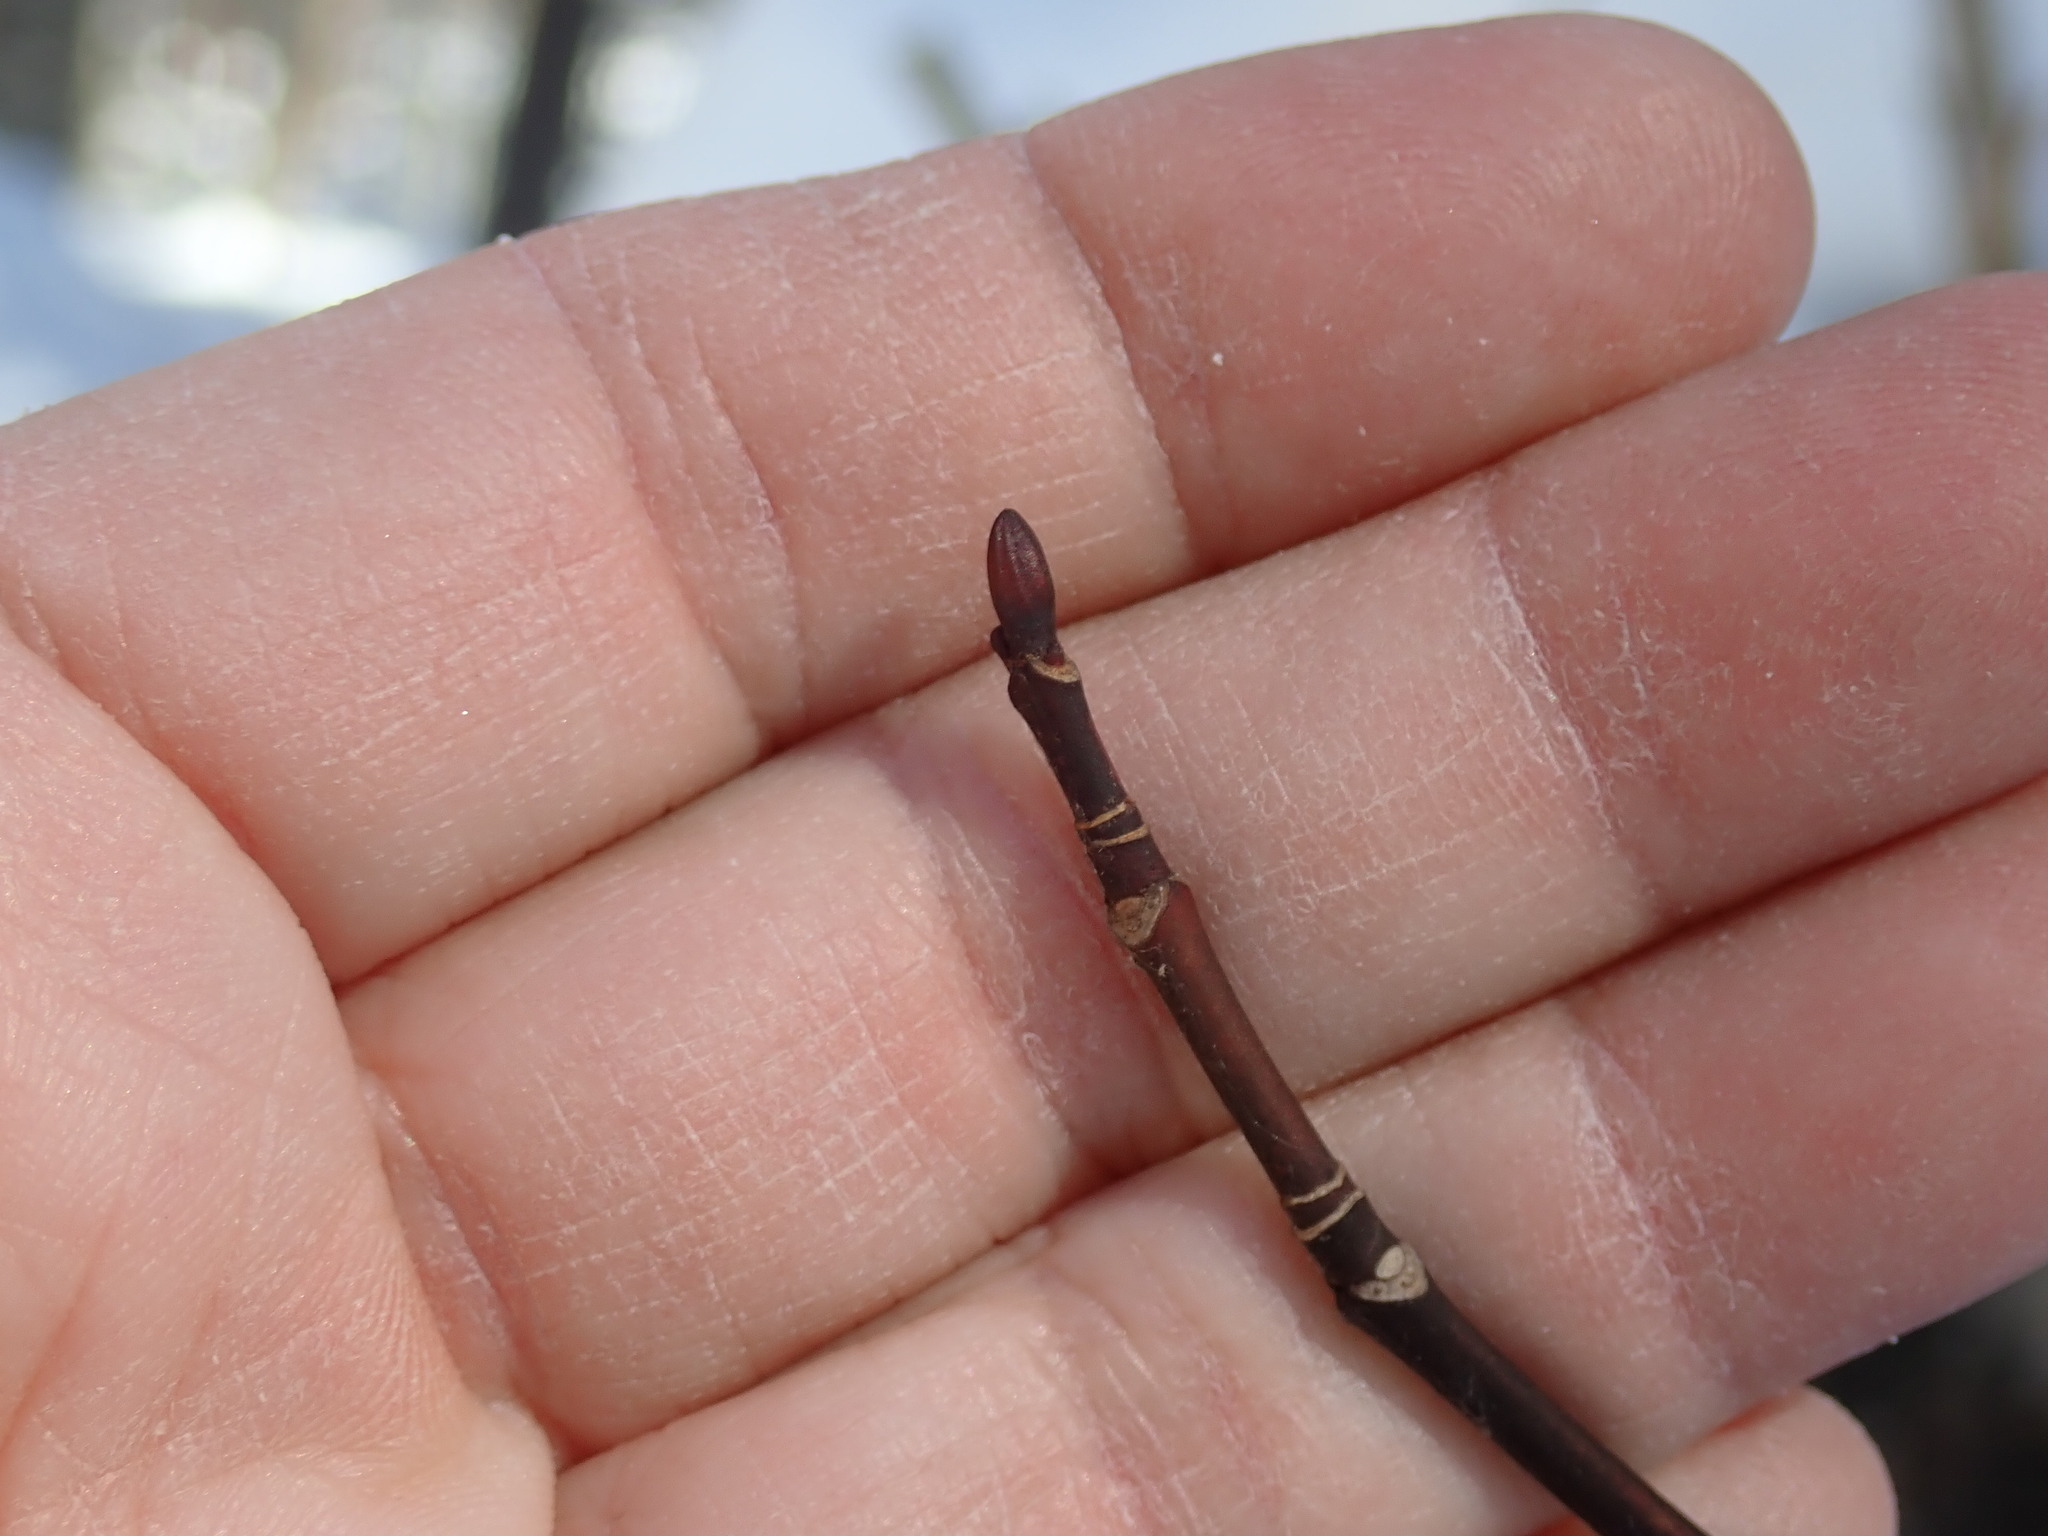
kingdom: Plantae
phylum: Tracheophyta
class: Magnoliopsida
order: Sapindales
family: Sapindaceae
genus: Acer
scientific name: Acer pensylvanicum
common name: Moosewood
